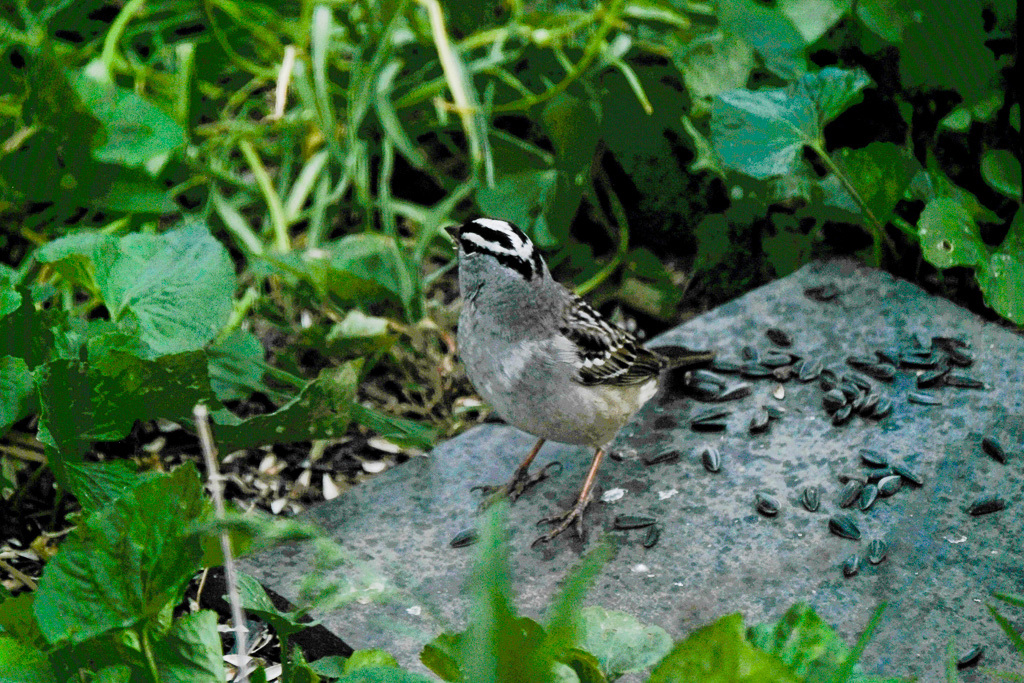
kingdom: Animalia
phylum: Chordata
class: Aves
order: Passeriformes
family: Passerellidae
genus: Zonotrichia
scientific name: Zonotrichia leucophrys
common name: White-crowned sparrow
